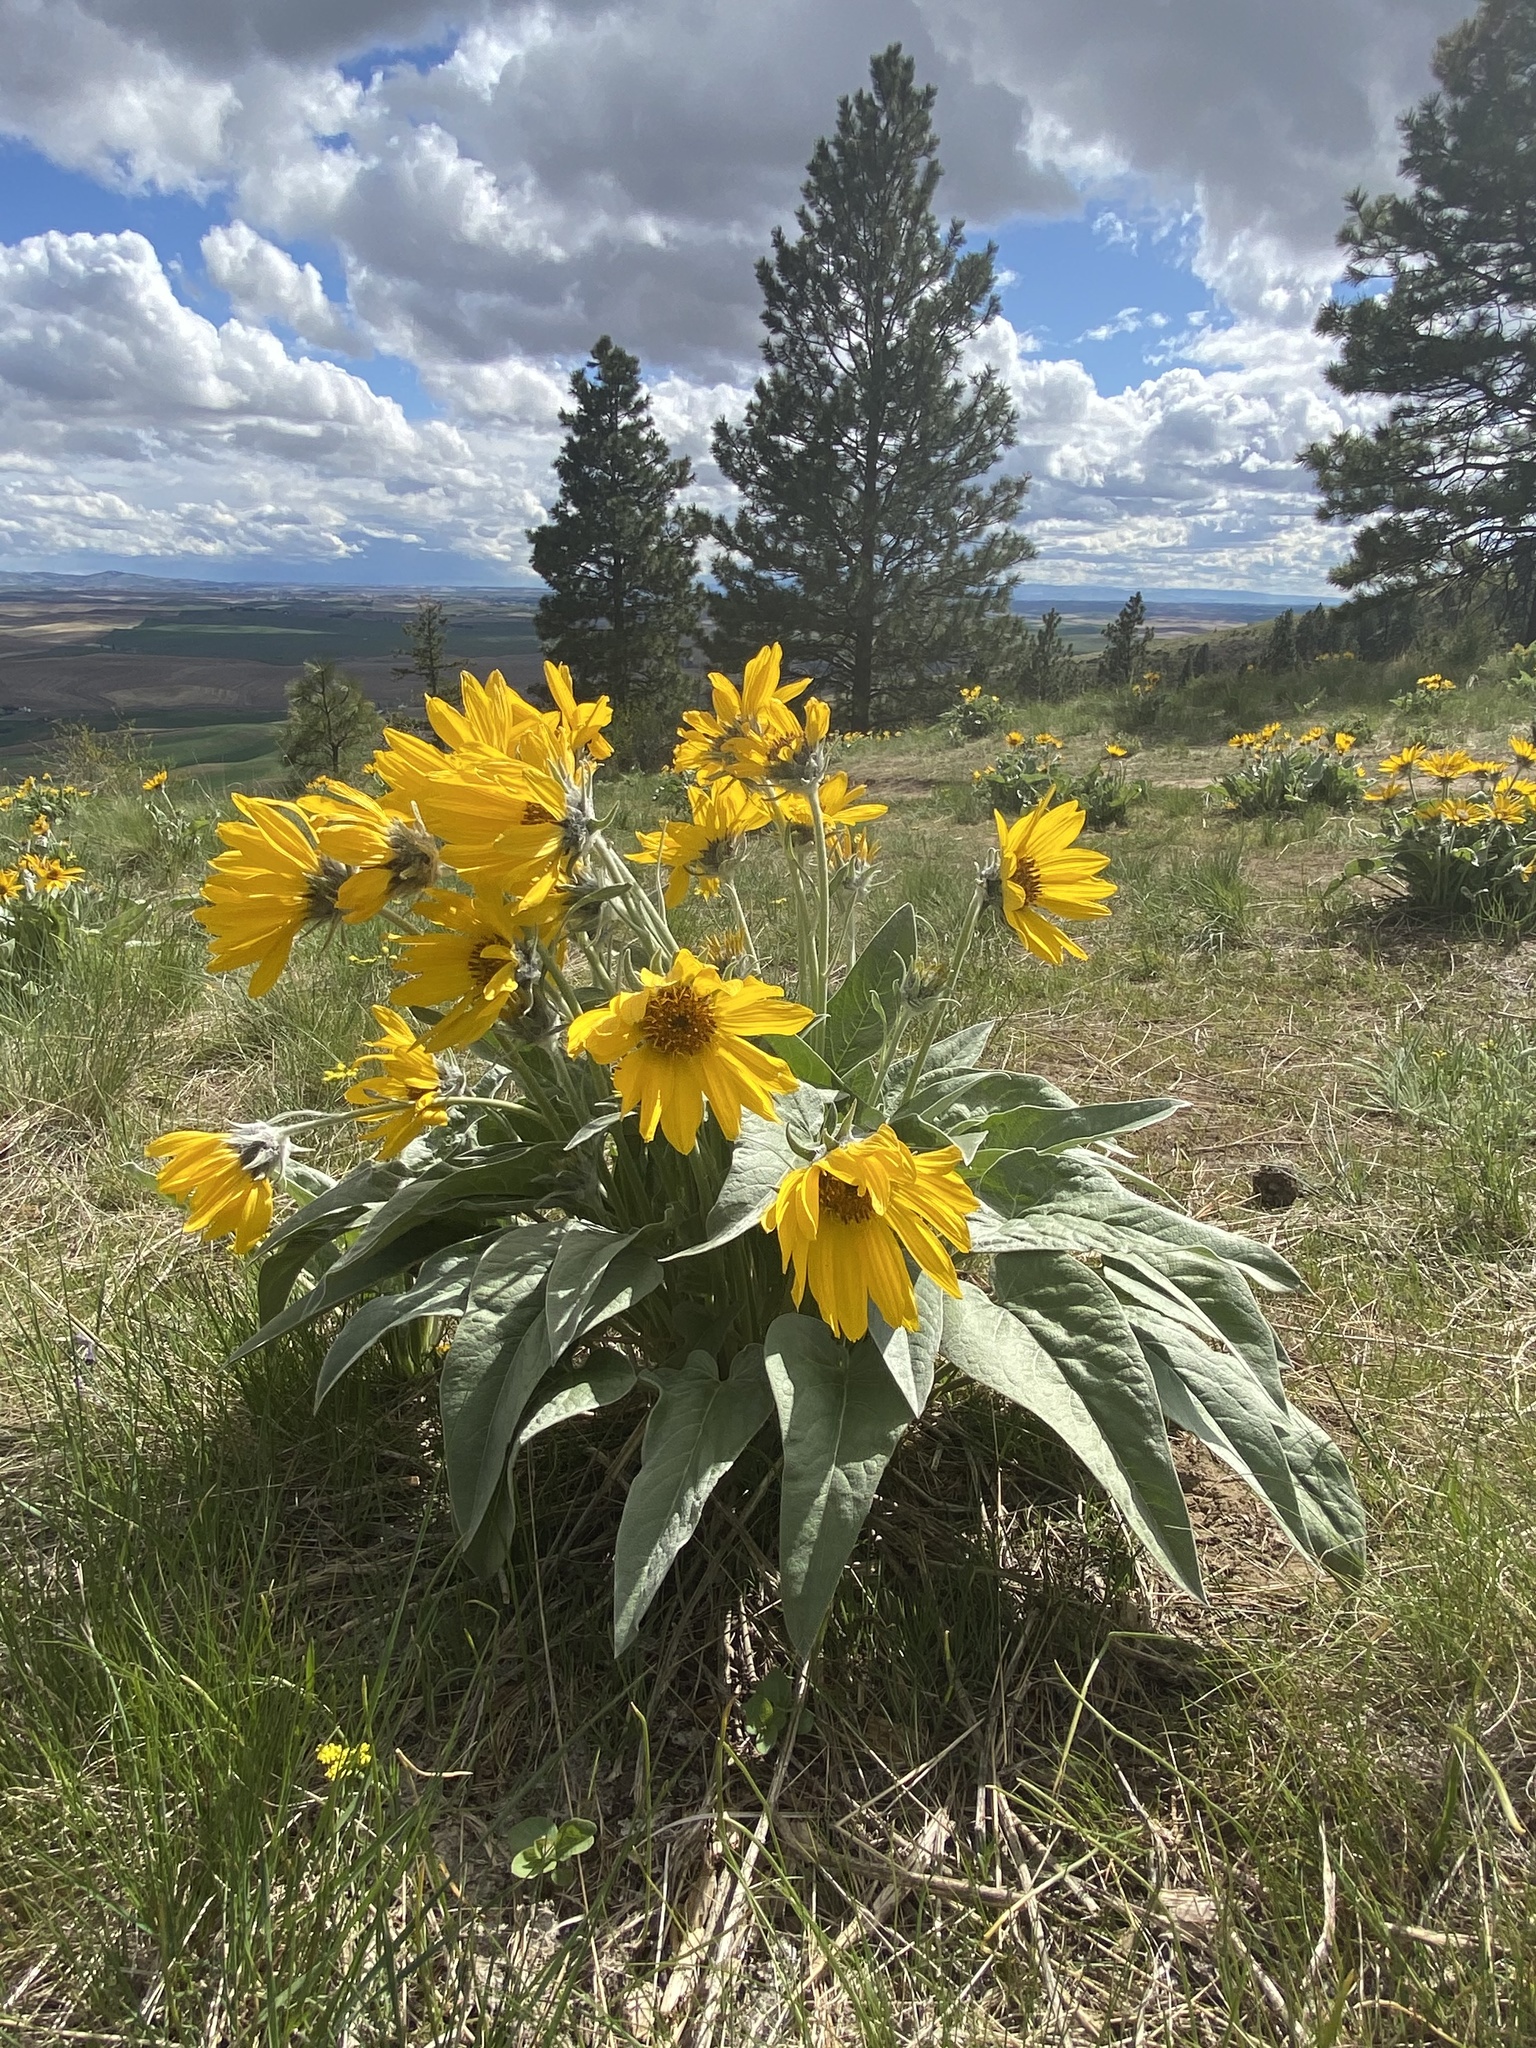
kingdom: Plantae
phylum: Tracheophyta
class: Magnoliopsida
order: Asterales
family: Asteraceae
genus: Wyethia
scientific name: Wyethia sagittata
